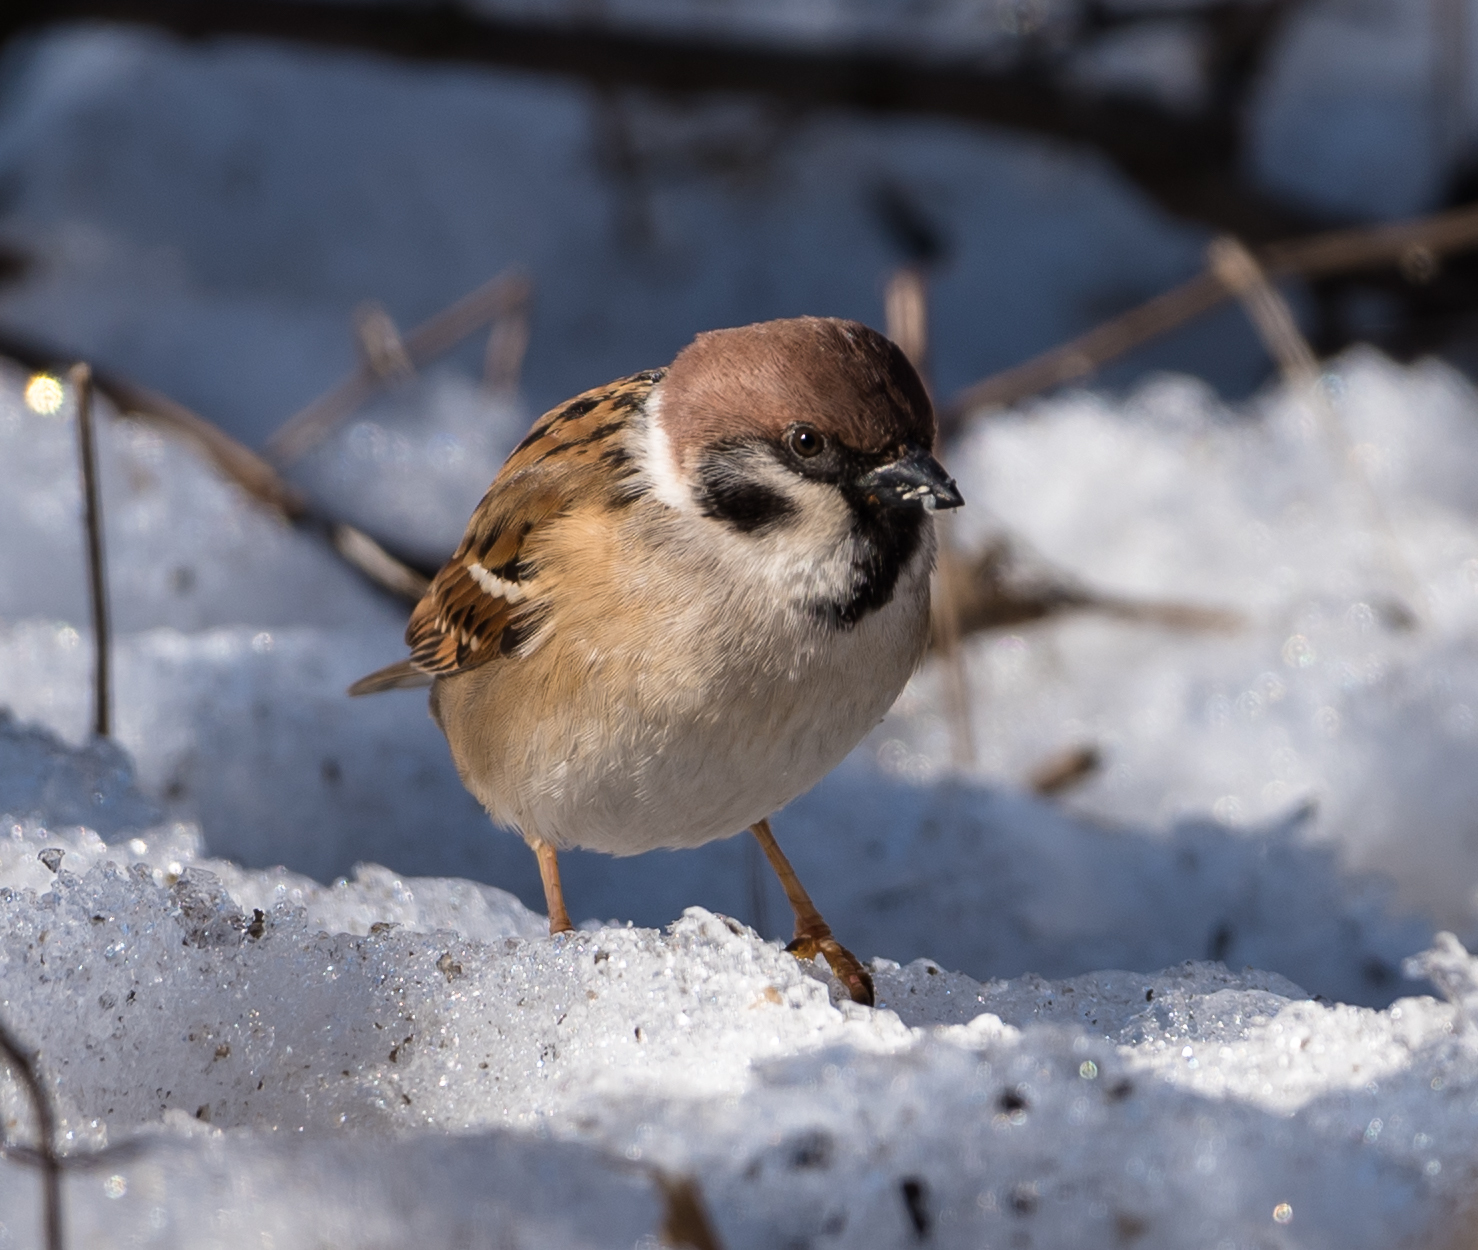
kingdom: Animalia
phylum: Chordata
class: Aves
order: Passeriformes
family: Passeridae
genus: Passer
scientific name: Passer montanus
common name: Eurasian tree sparrow
